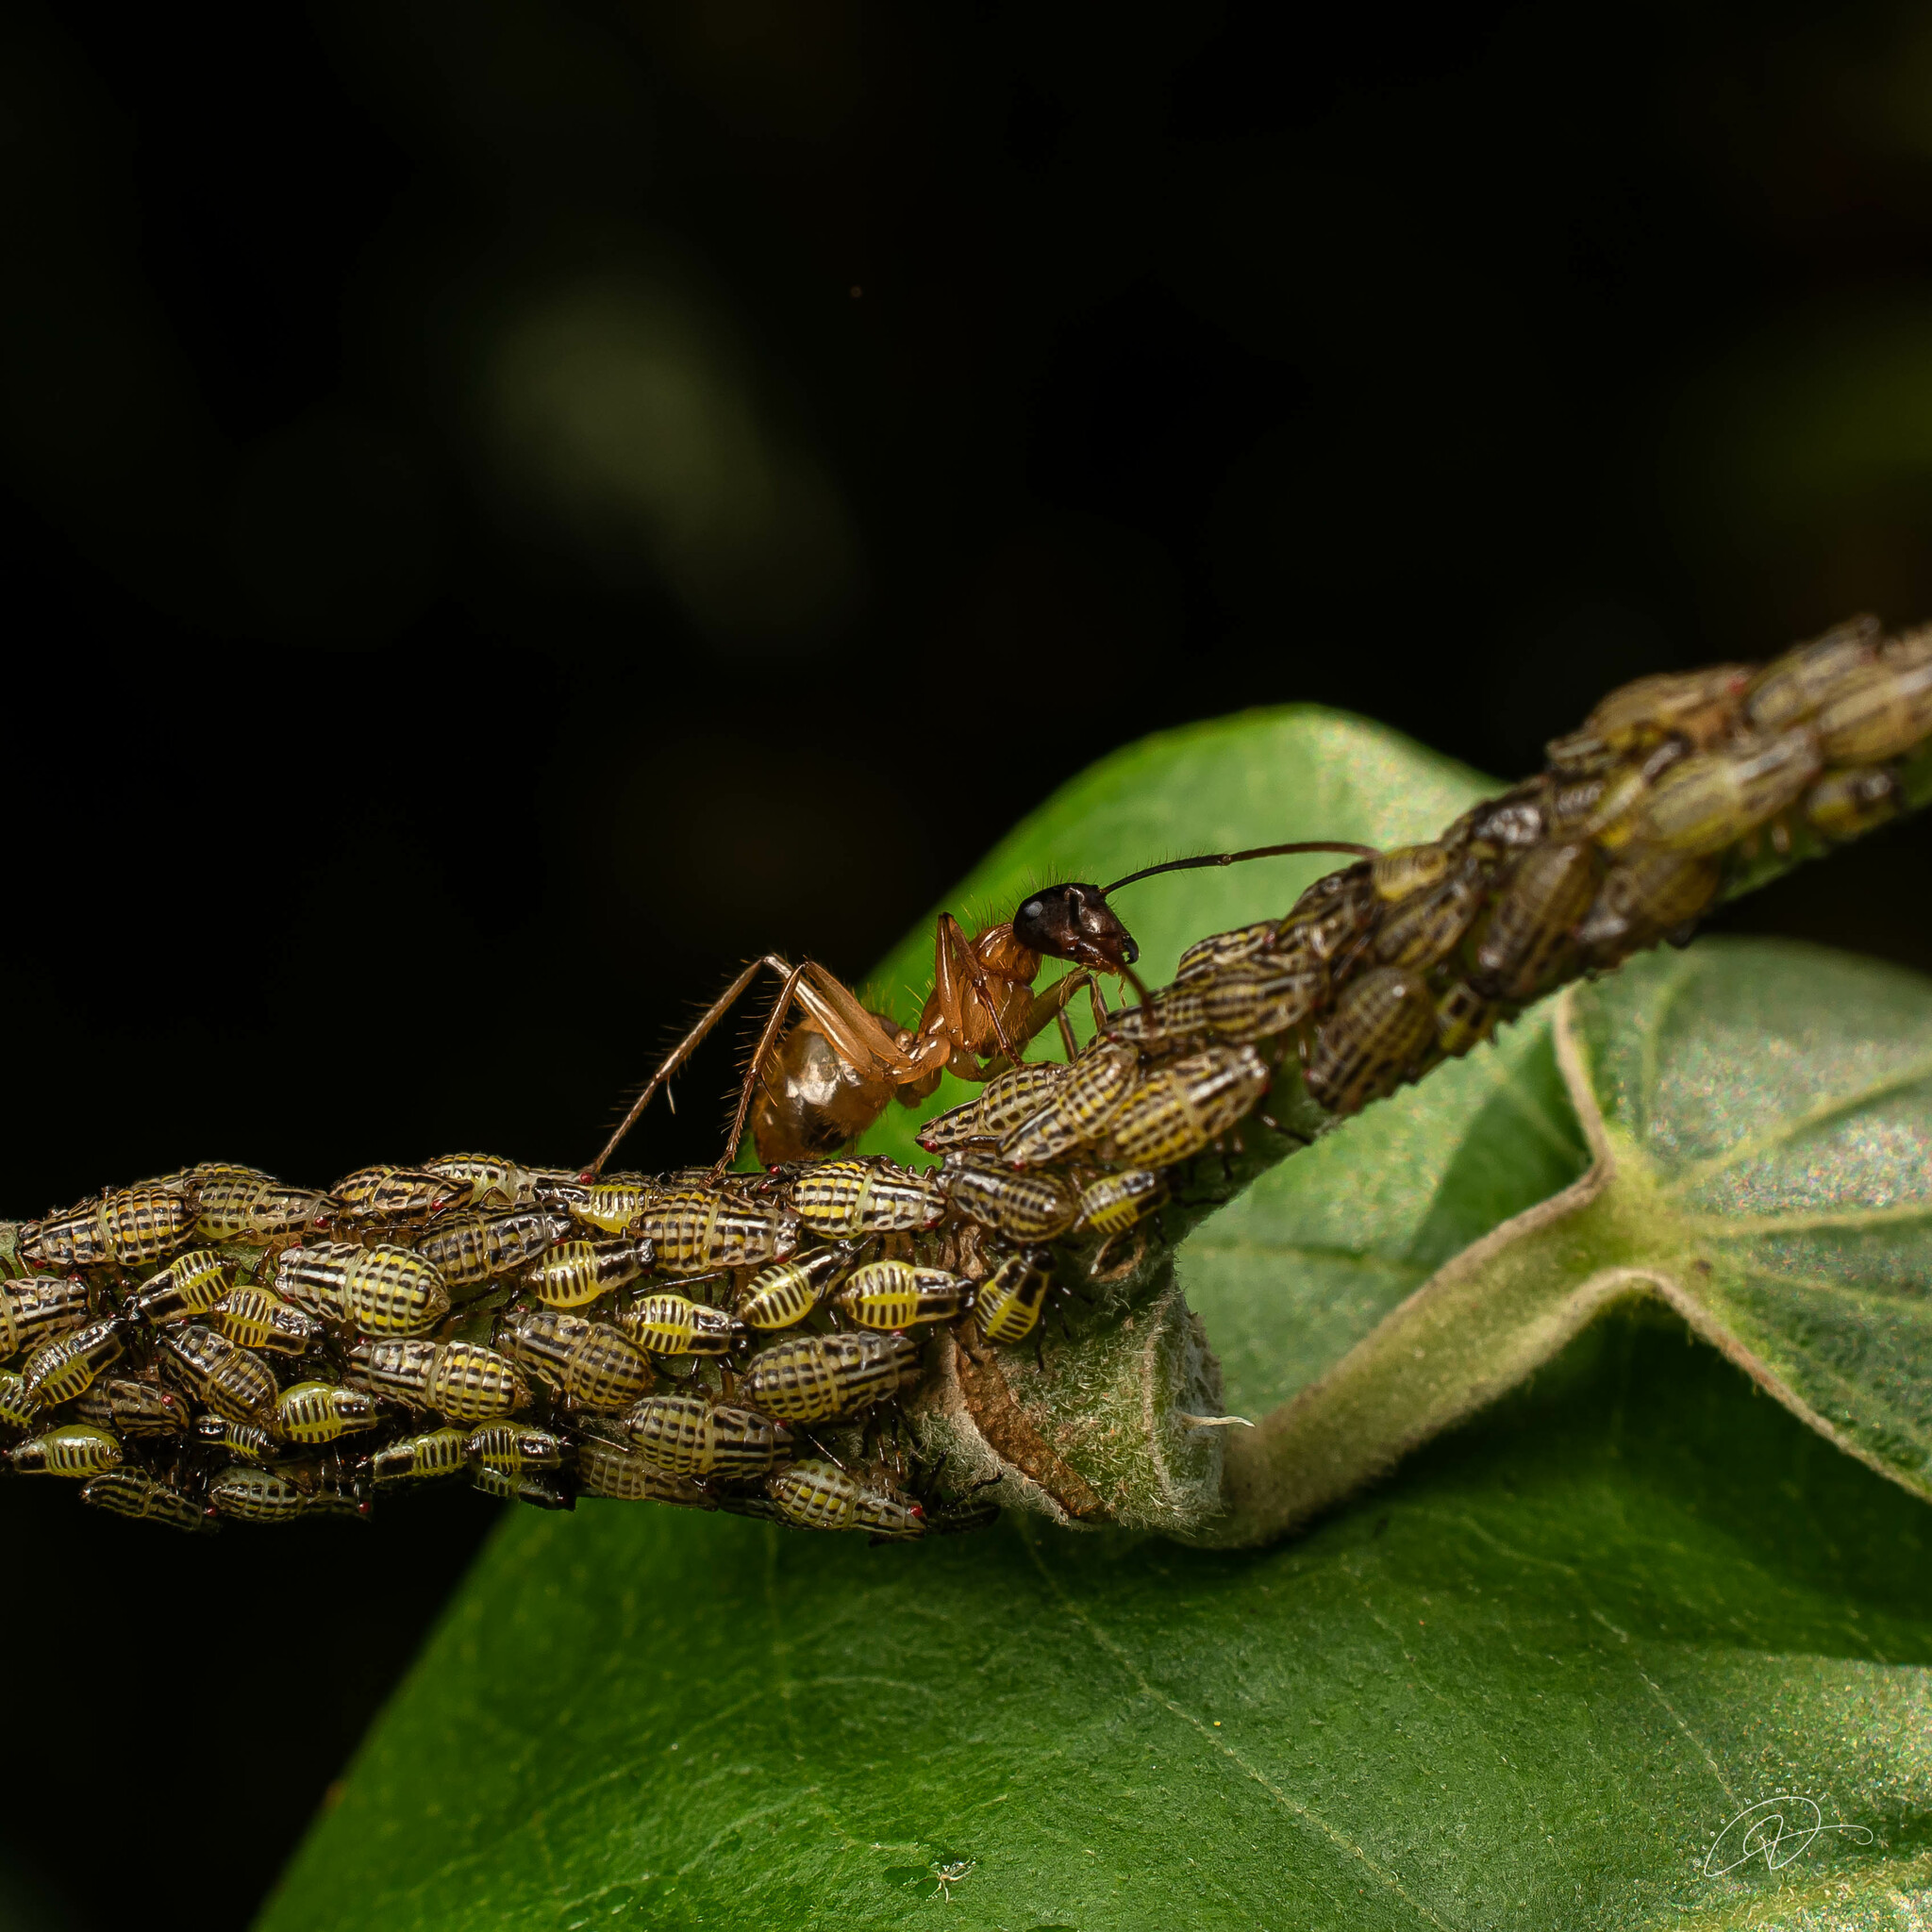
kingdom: Animalia
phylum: Arthropoda
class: Insecta
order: Hymenoptera
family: Formicidae
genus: Camponotus
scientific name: Camponotus atriceps
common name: Florida carpenter ant
